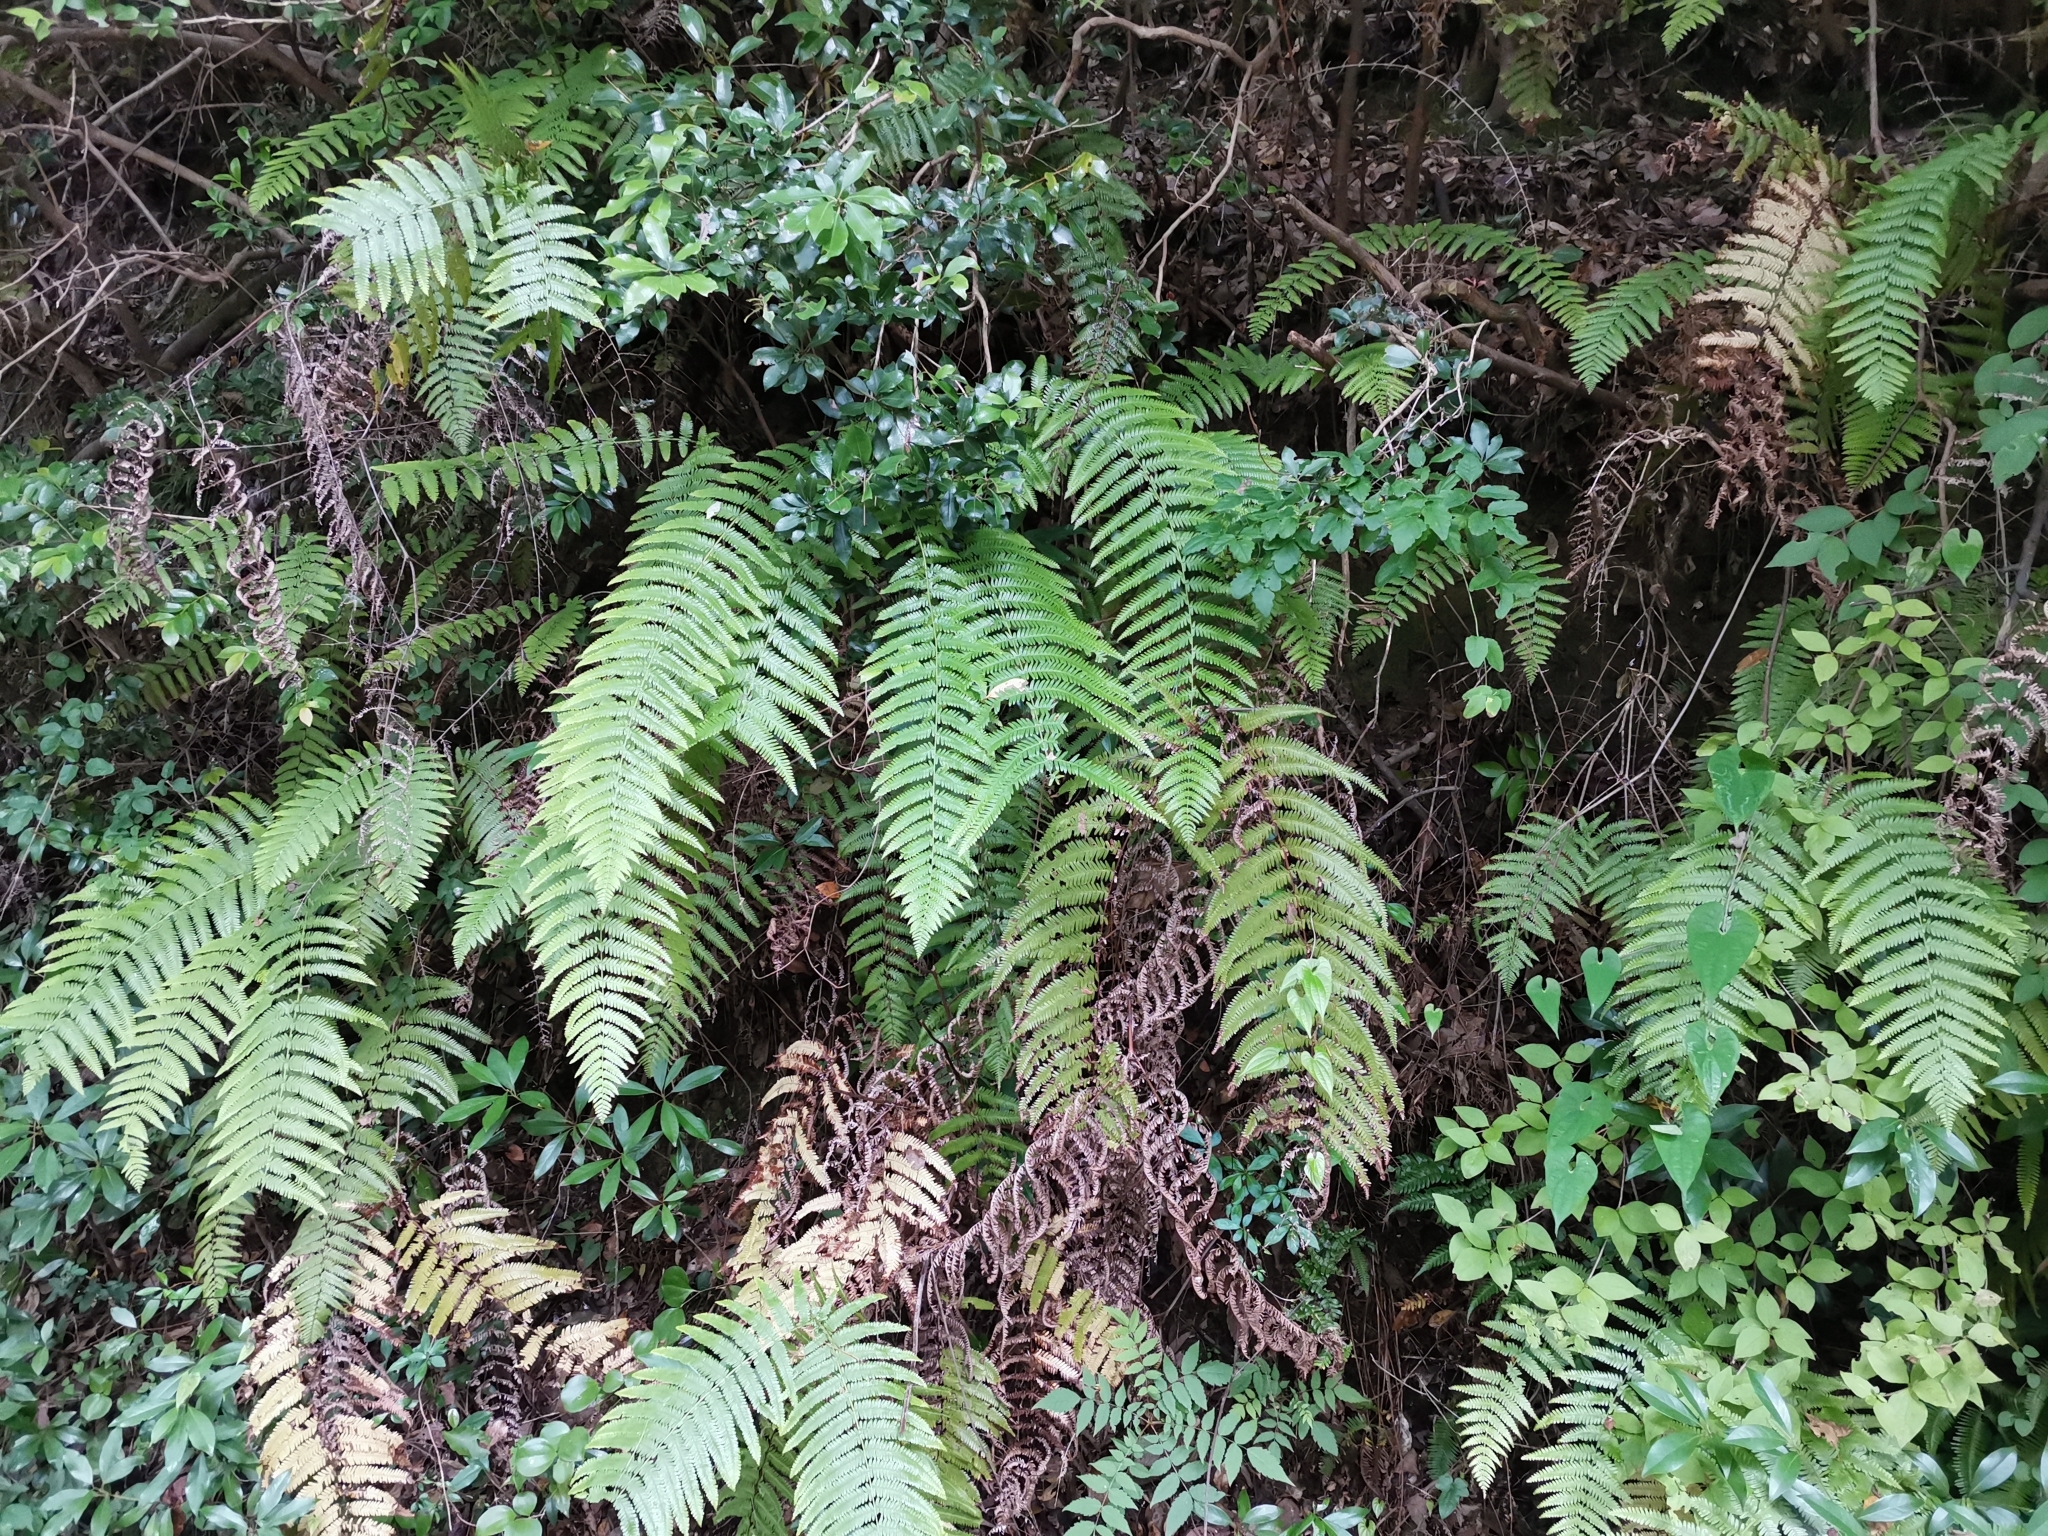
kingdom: Plantae
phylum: Tracheophyta
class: Polypodiopsida
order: Gleicheniales
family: Gleicheniaceae
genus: Diplopterygium
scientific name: Diplopterygium glaucum
